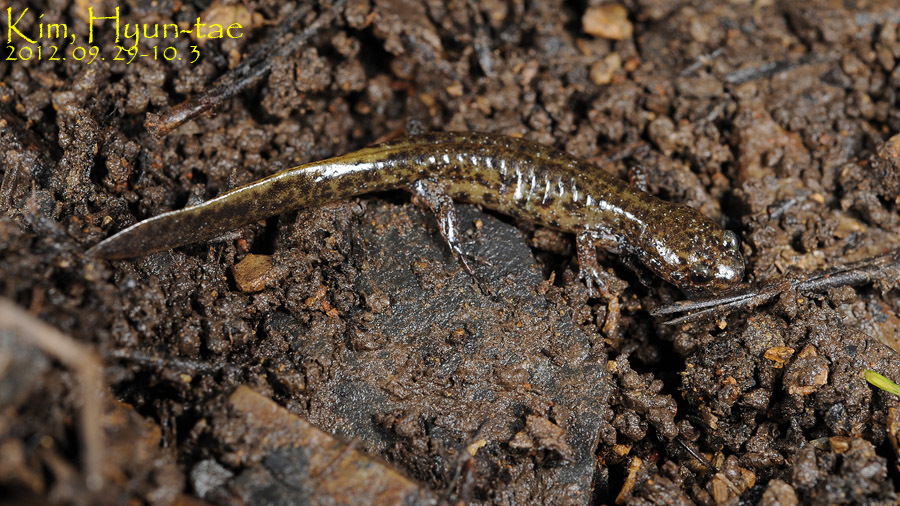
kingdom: Animalia
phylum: Chordata
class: Amphibia
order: Caudata
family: Hynobiidae
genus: Hynobius
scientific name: Hynobius perplicatus
